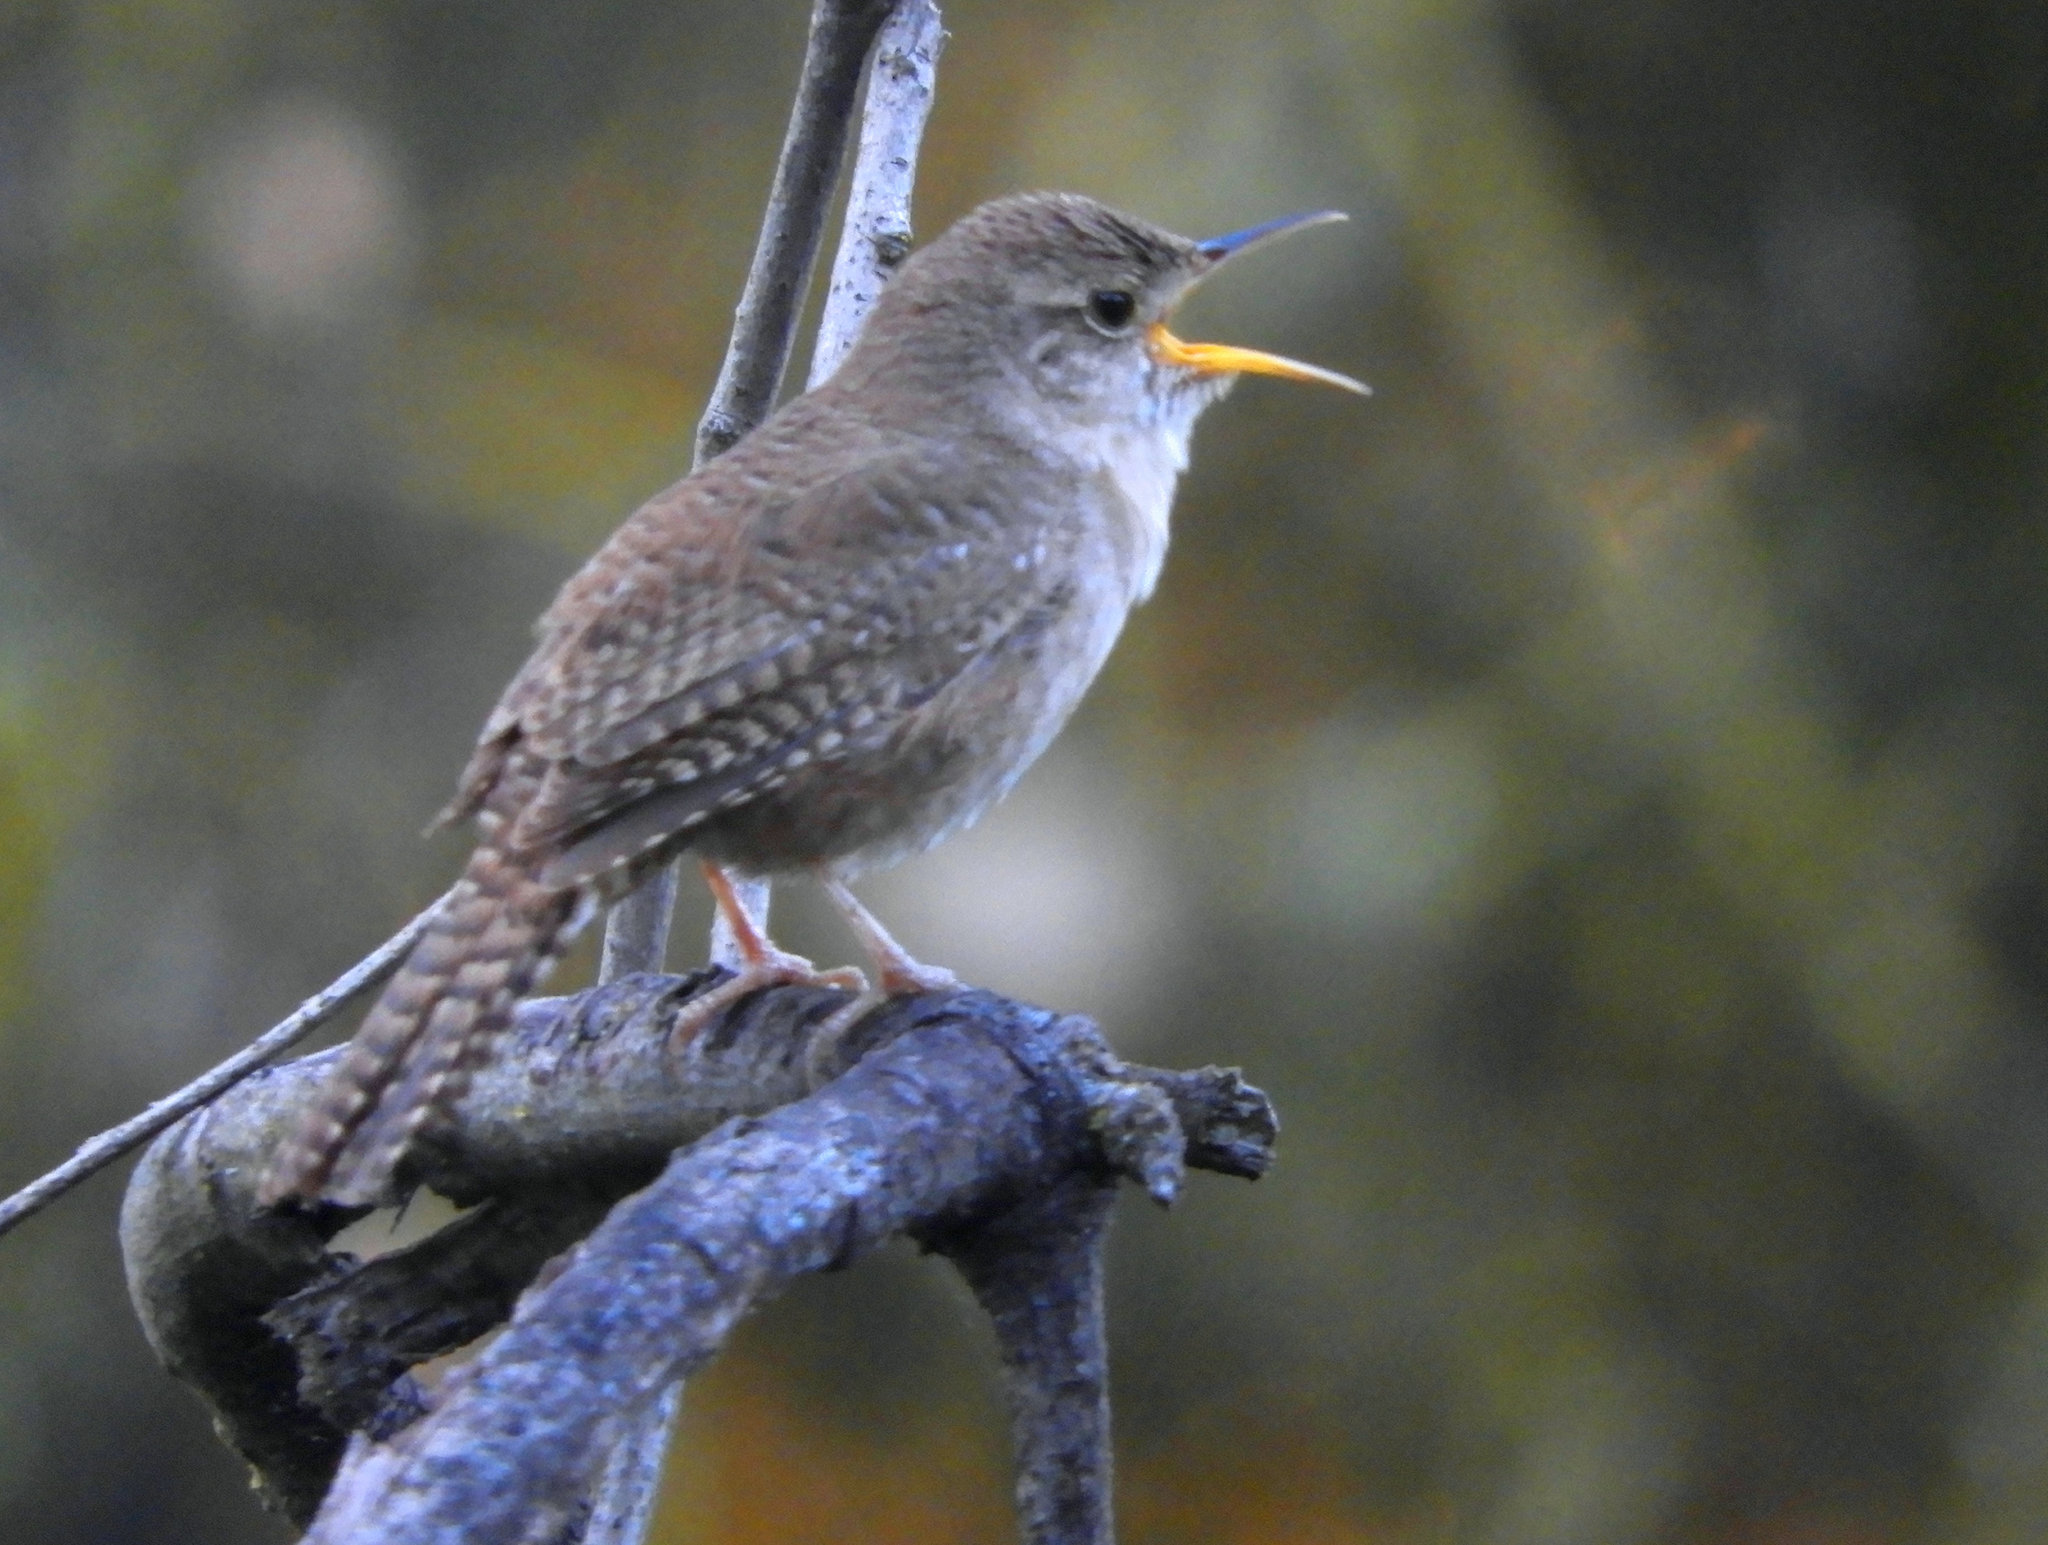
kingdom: Animalia
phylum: Chordata
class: Aves
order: Passeriformes
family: Troglodytidae
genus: Troglodytes
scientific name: Troglodytes aedon
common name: House wren
